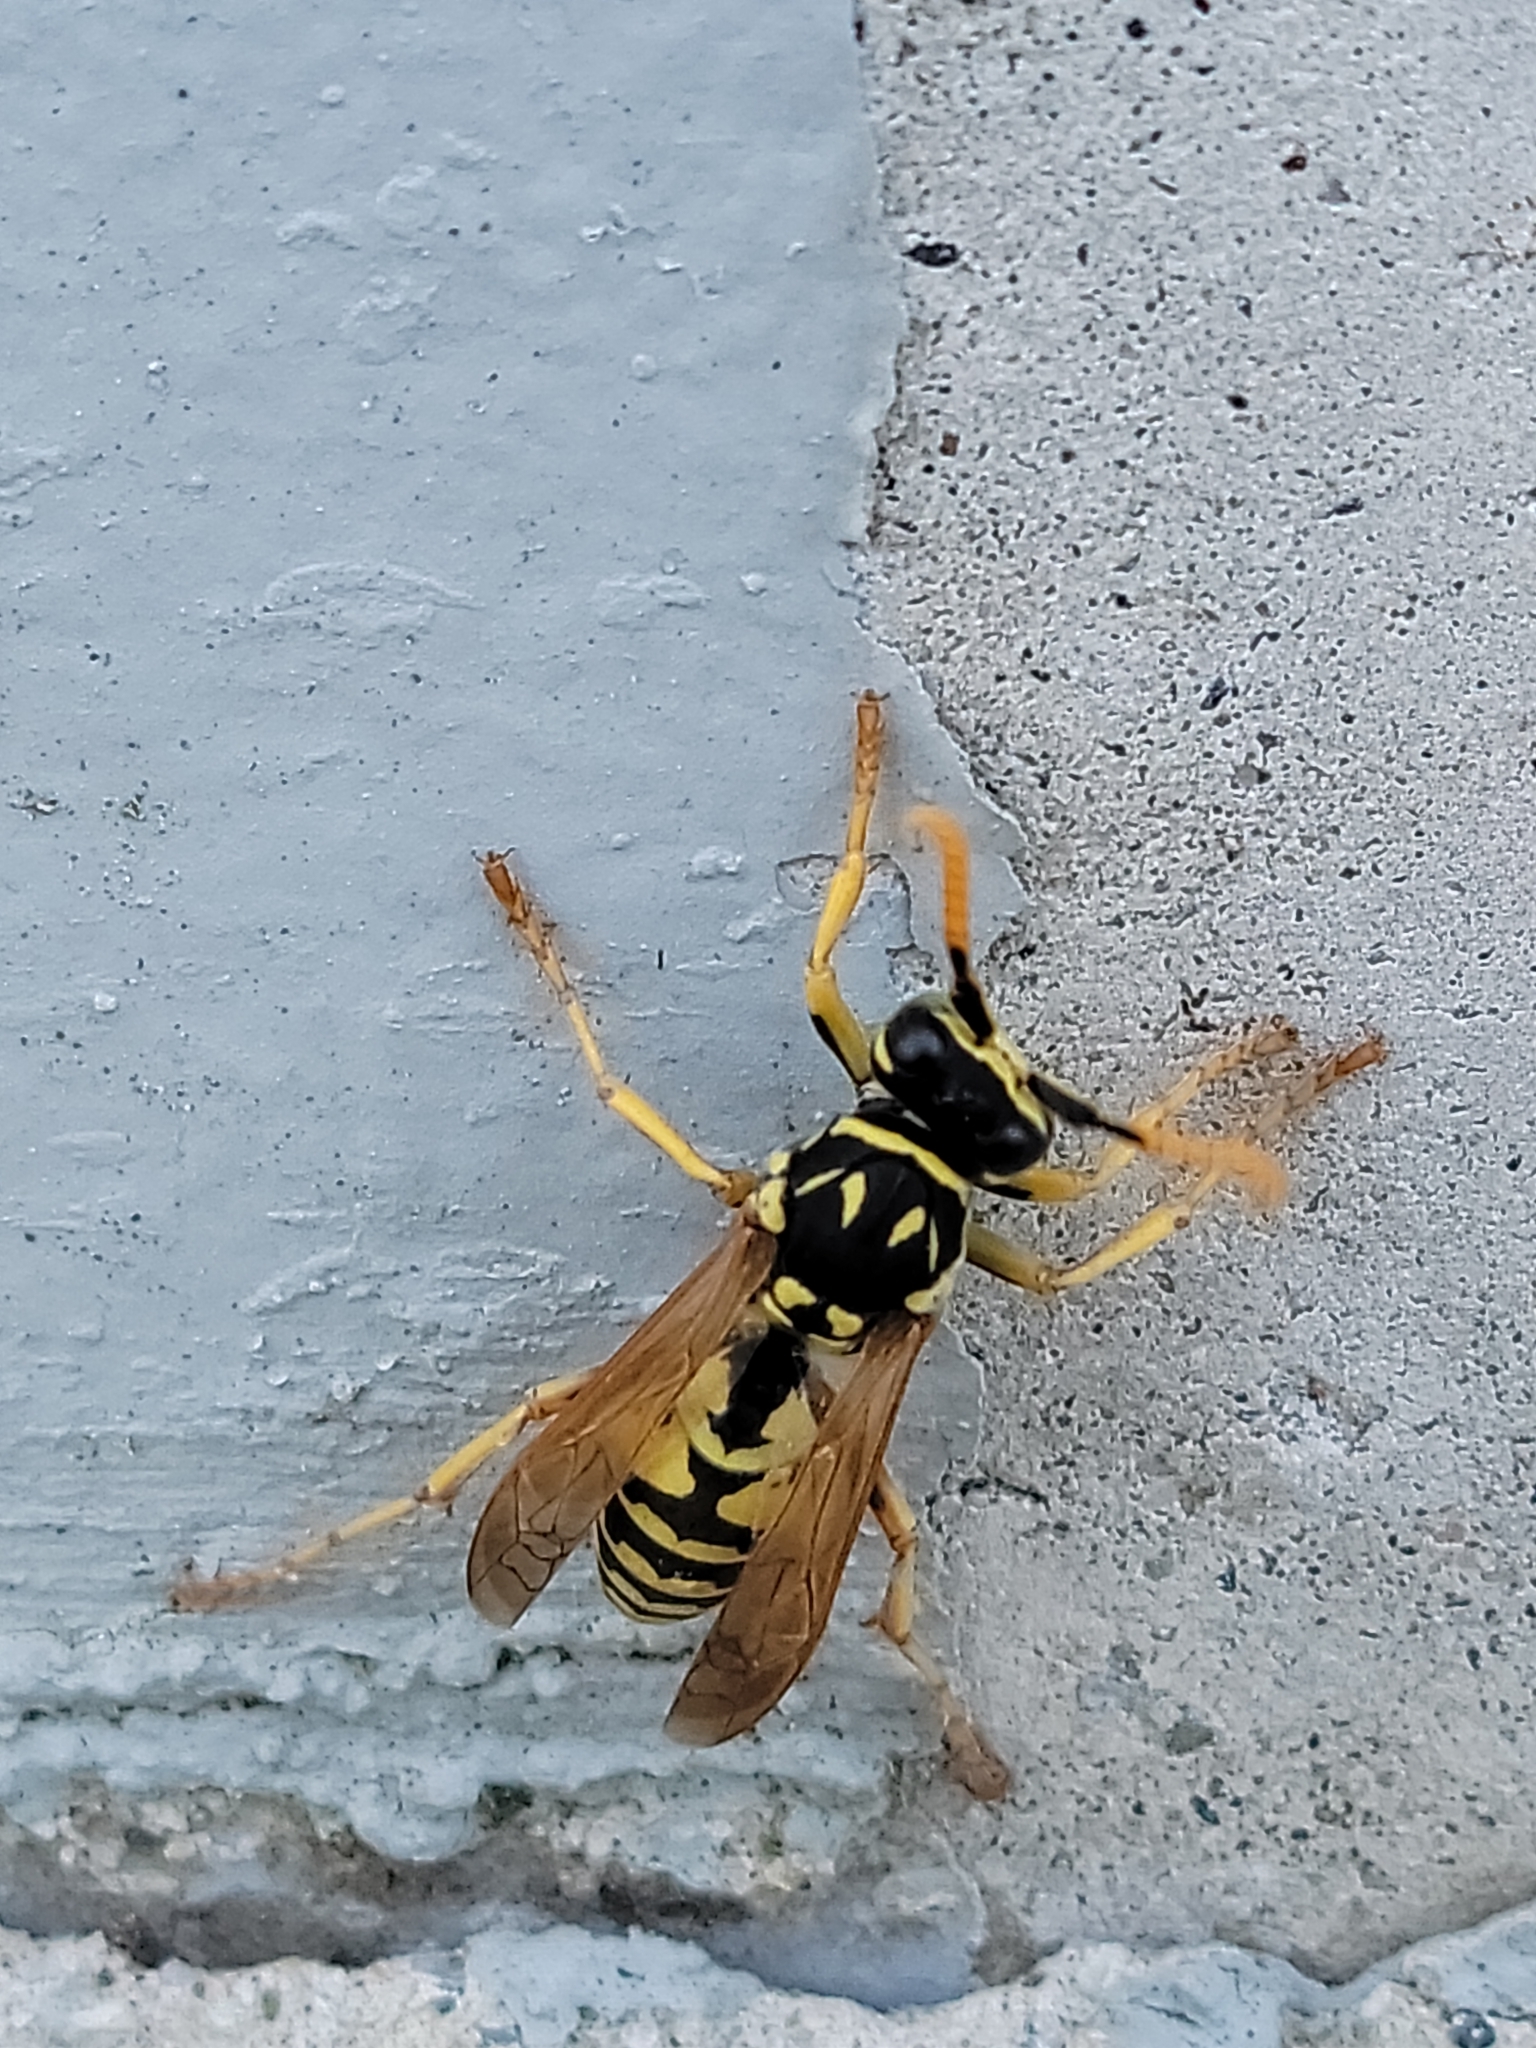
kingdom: Animalia
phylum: Arthropoda
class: Insecta
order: Hymenoptera
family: Eumenidae
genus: Polistes
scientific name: Polistes dominula
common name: Paper wasp
